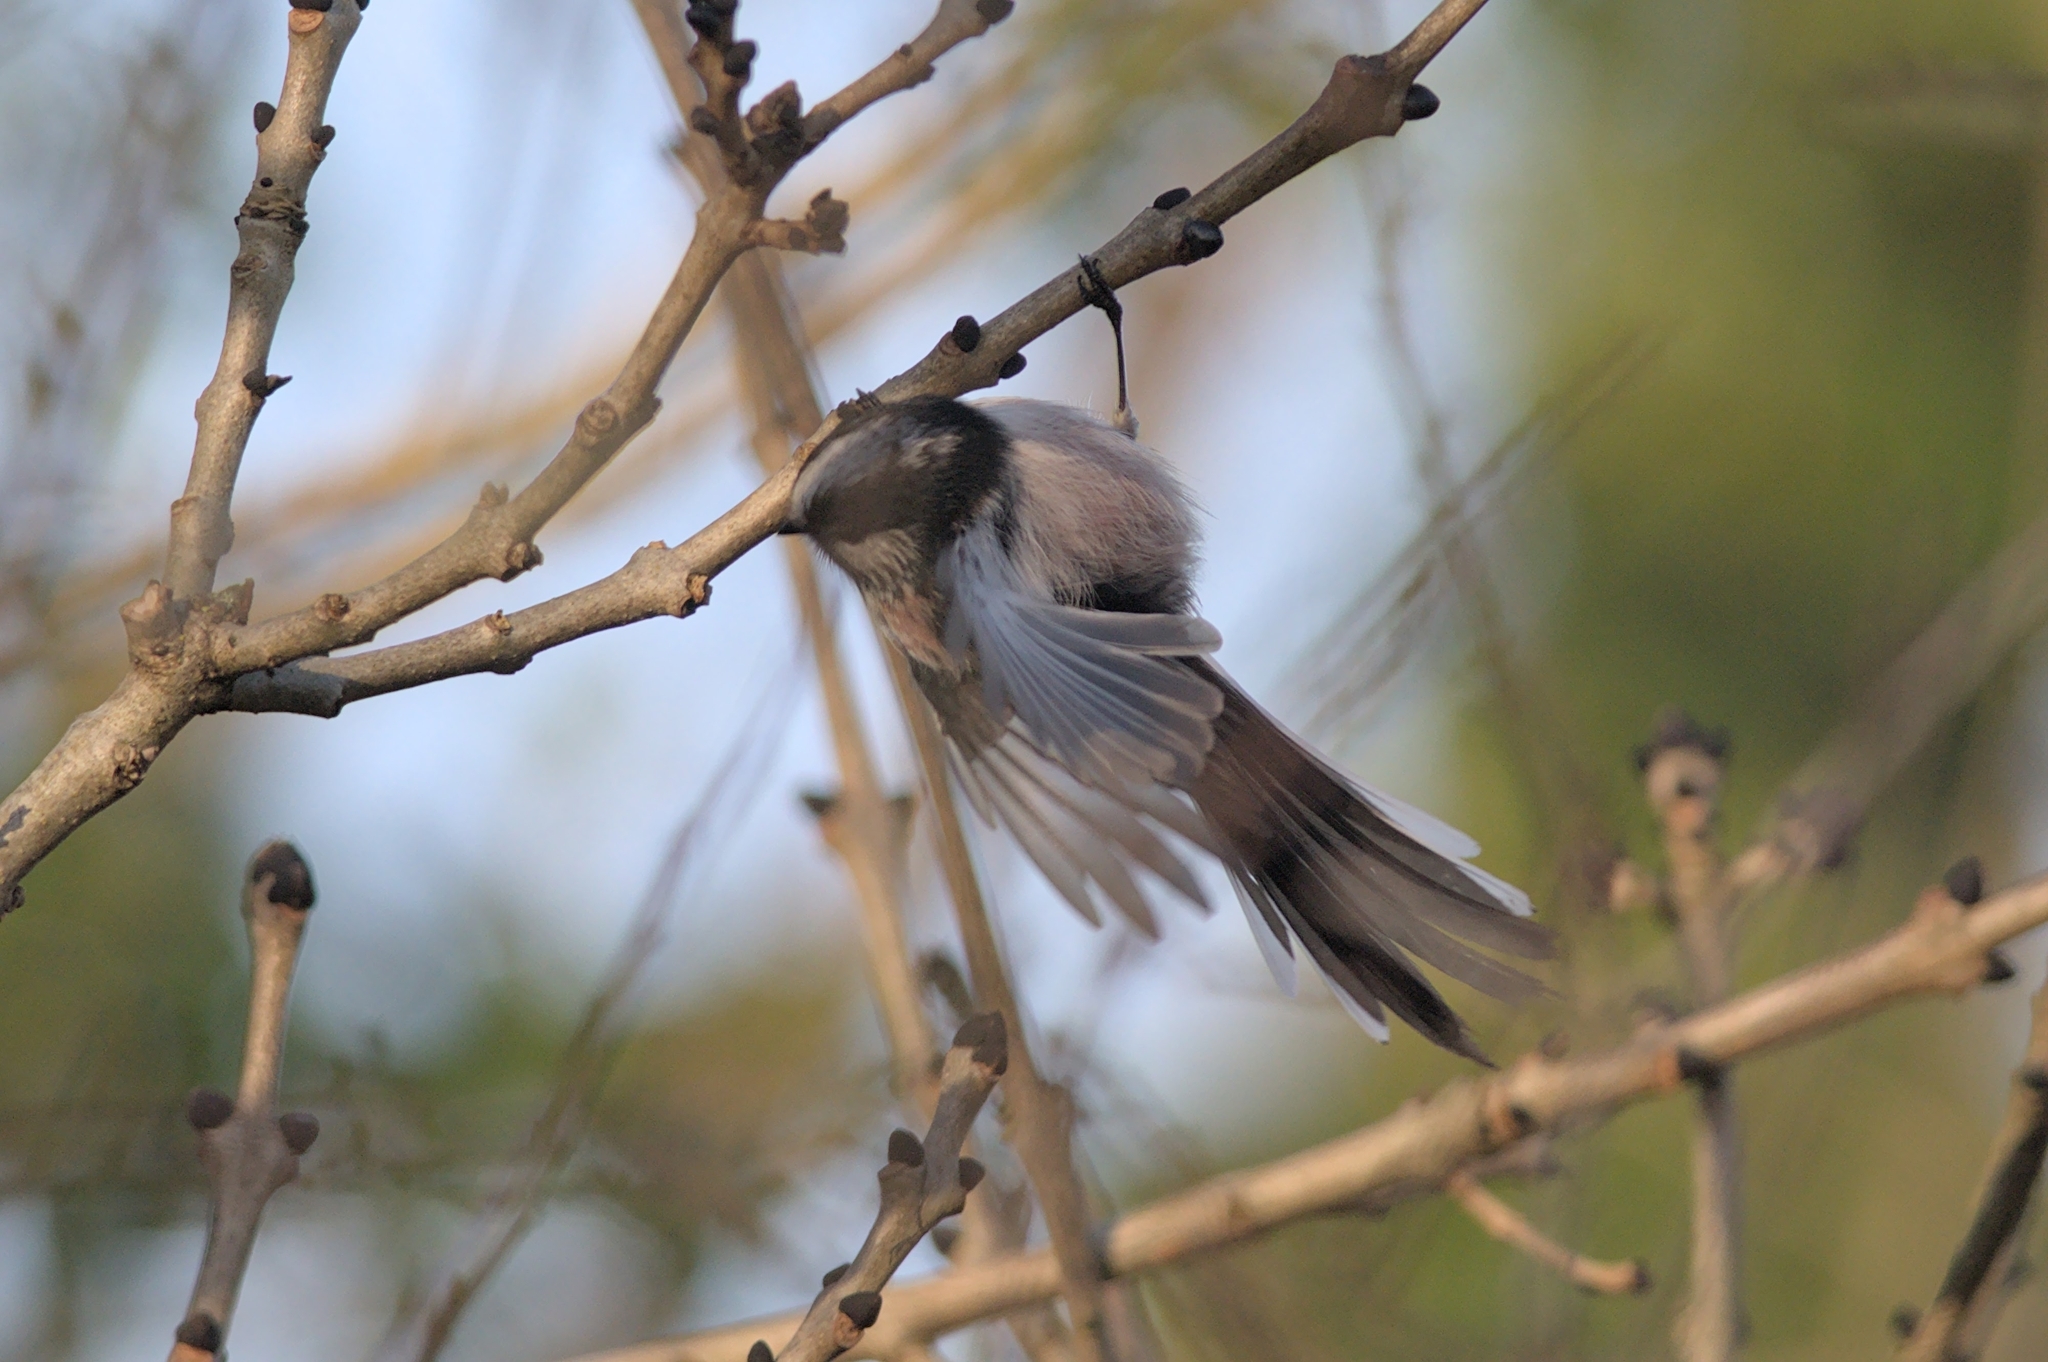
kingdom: Animalia
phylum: Chordata
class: Aves
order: Passeriformes
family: Aegithalidae
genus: Aegithalos
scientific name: Aegithalos caudatus
